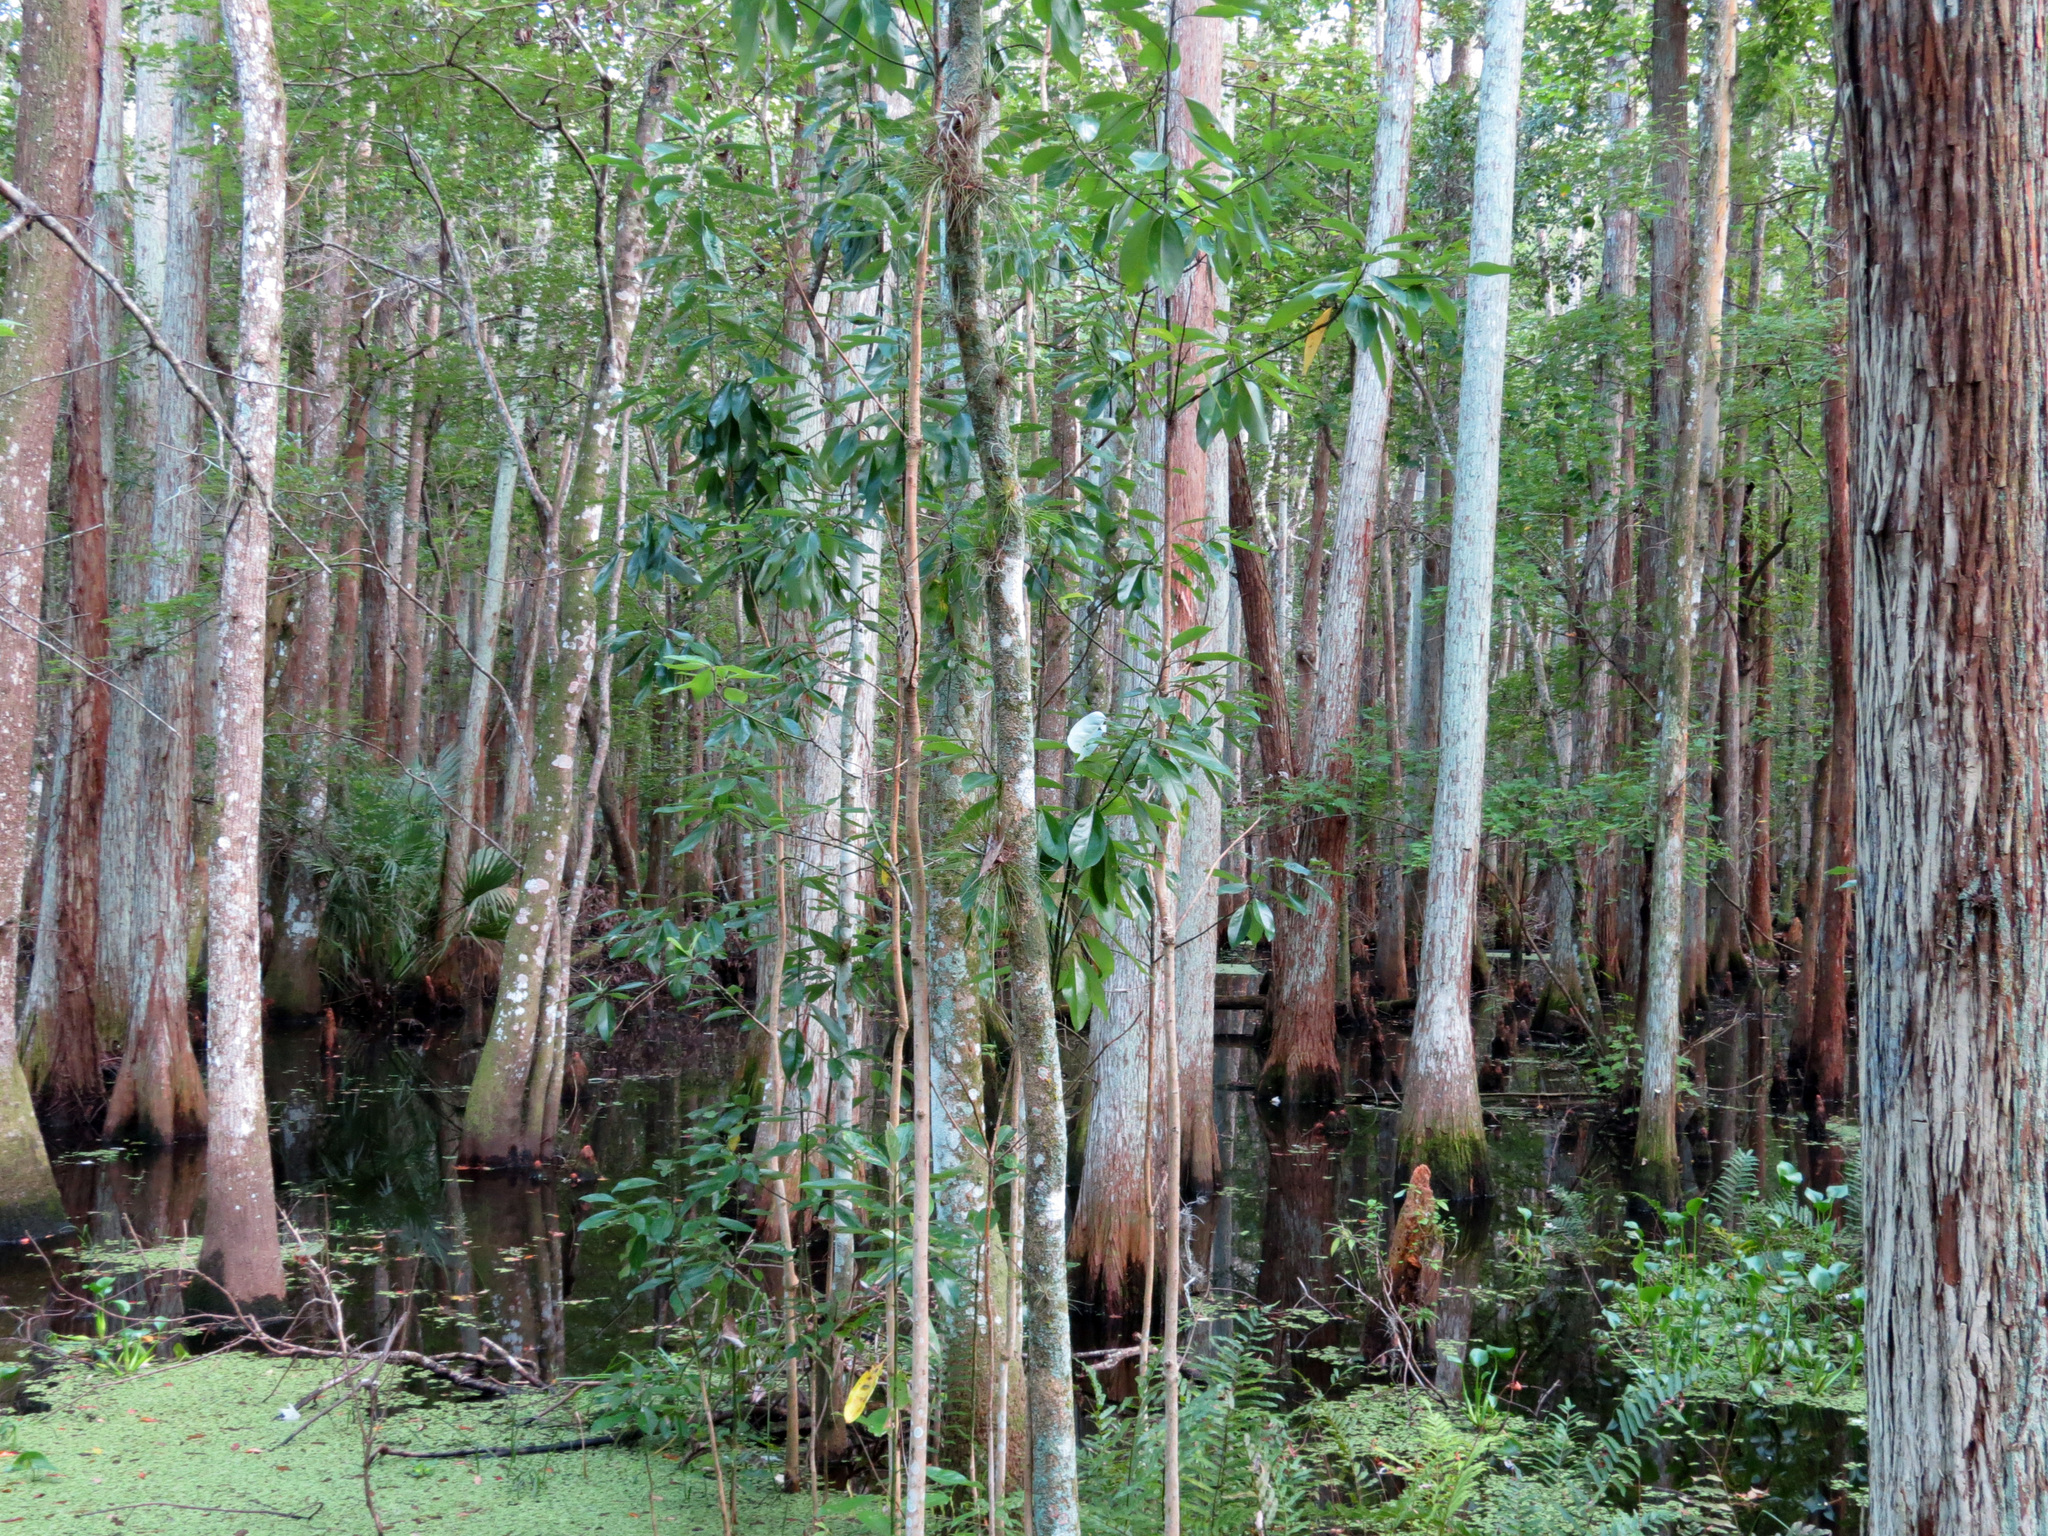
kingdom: Plantae
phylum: Tracheophyta
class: Pinopsida
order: Pinales
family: Cupressaceae
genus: Taxodium
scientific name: Taxodium distichum
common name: Bald cypress
